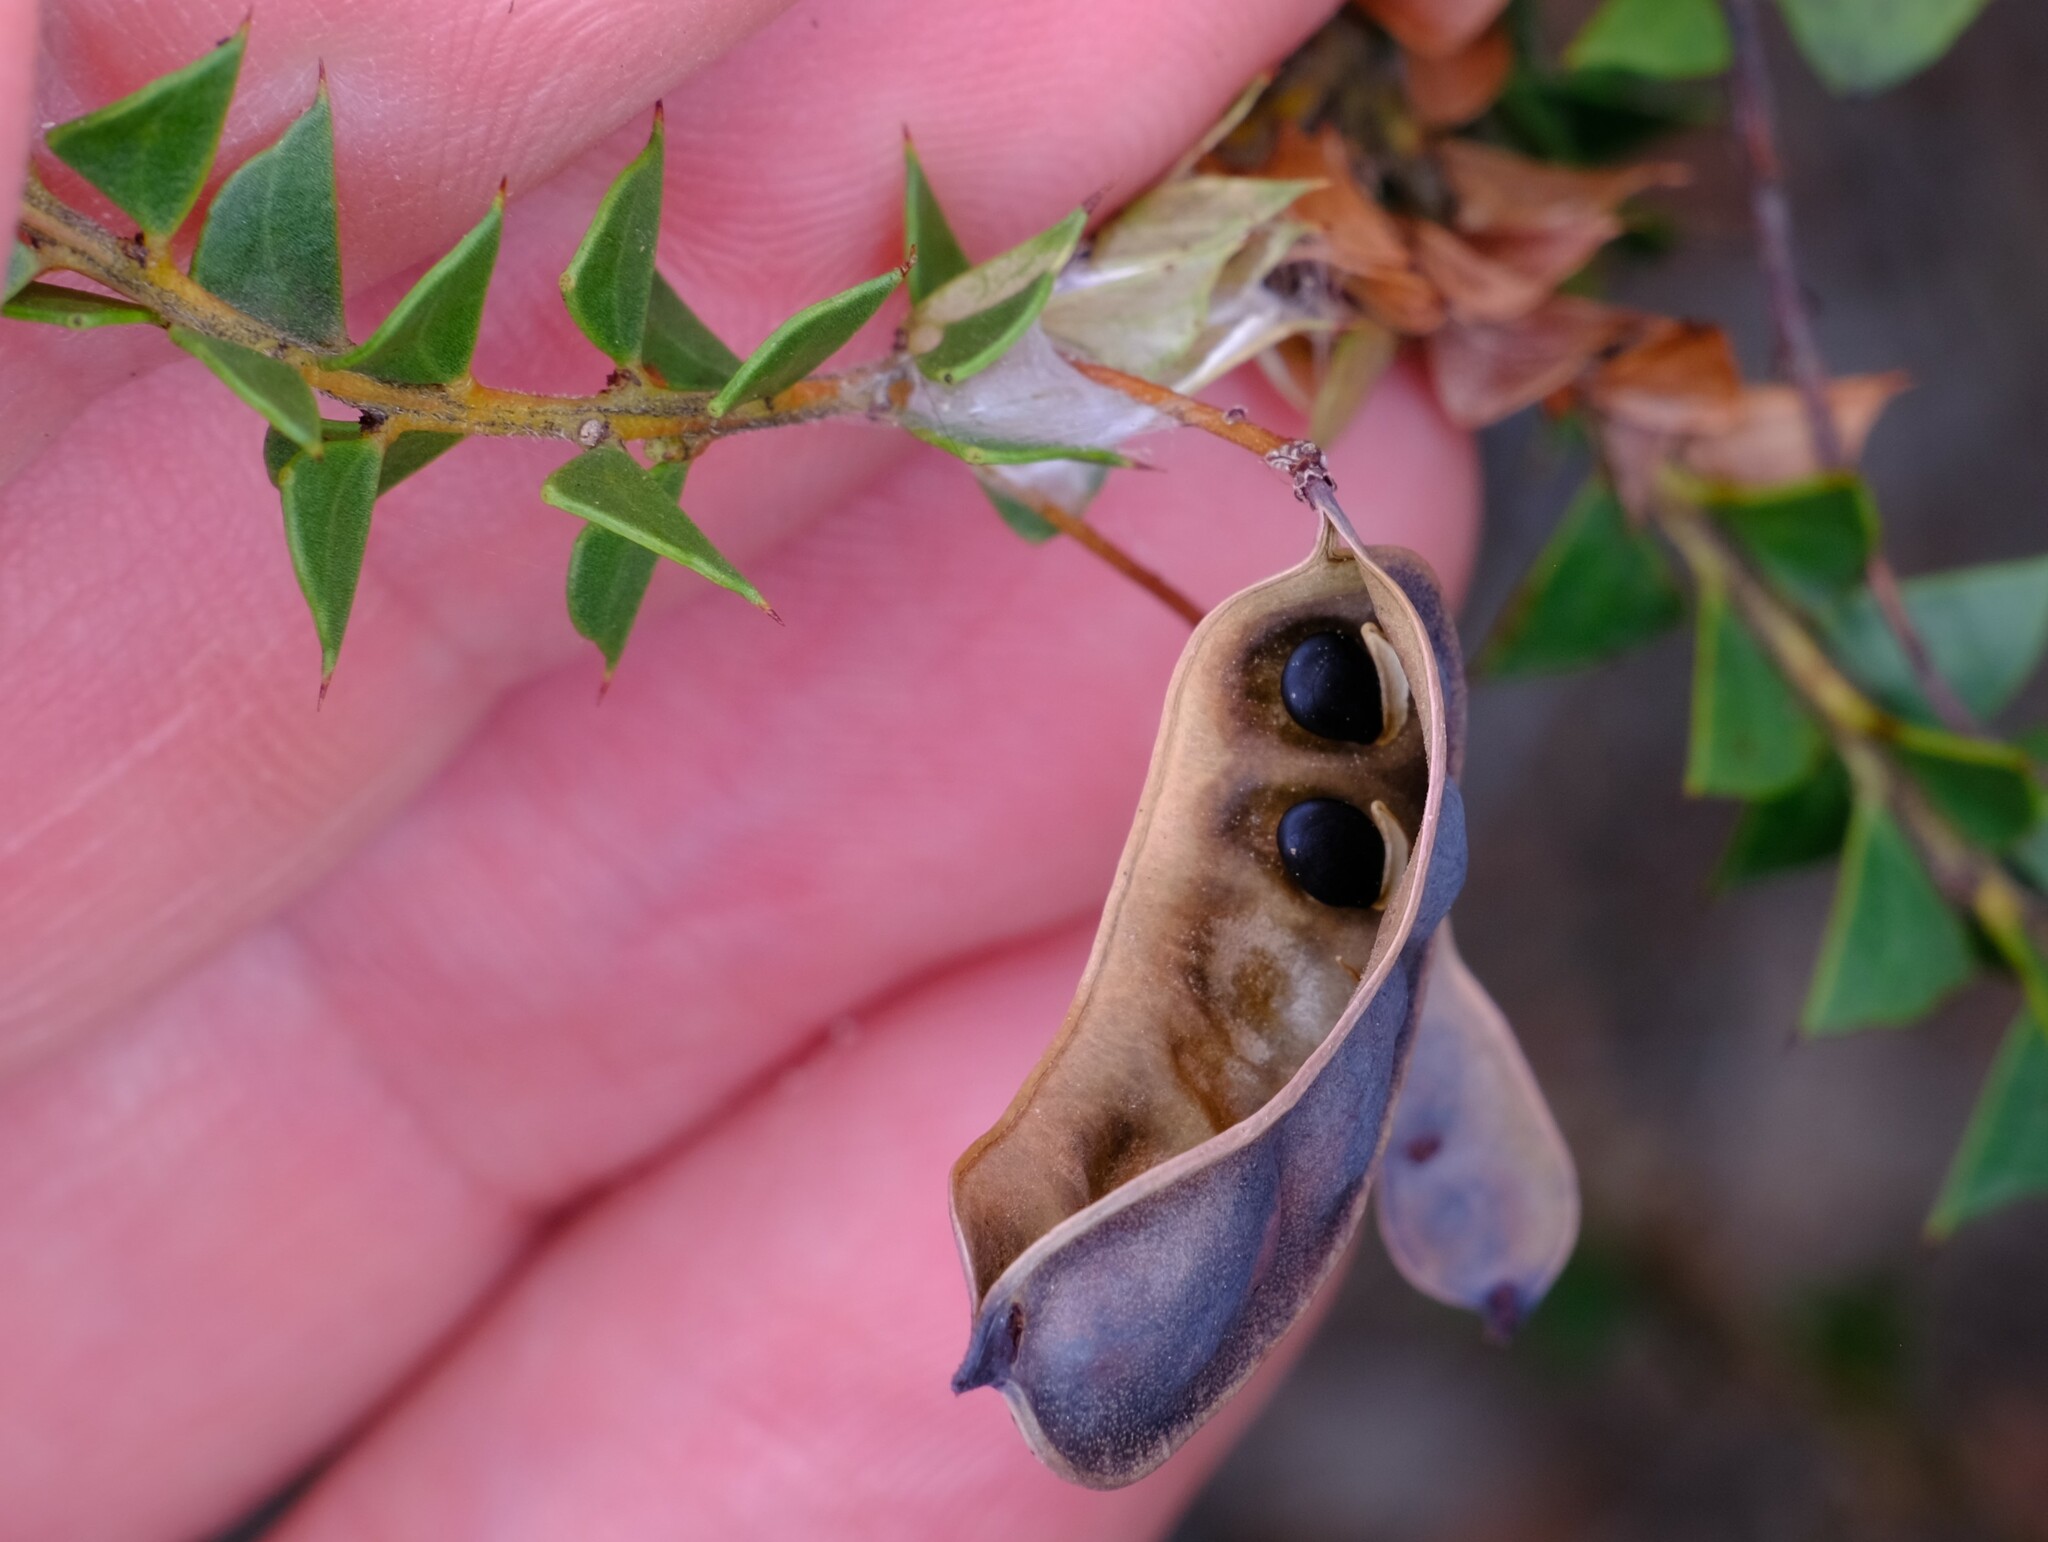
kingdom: Plantae
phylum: Tracheophyta
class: Magnoliopsida
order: Fabales
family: Fabaceae
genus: Acacia
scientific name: Acacia hubbardiana
